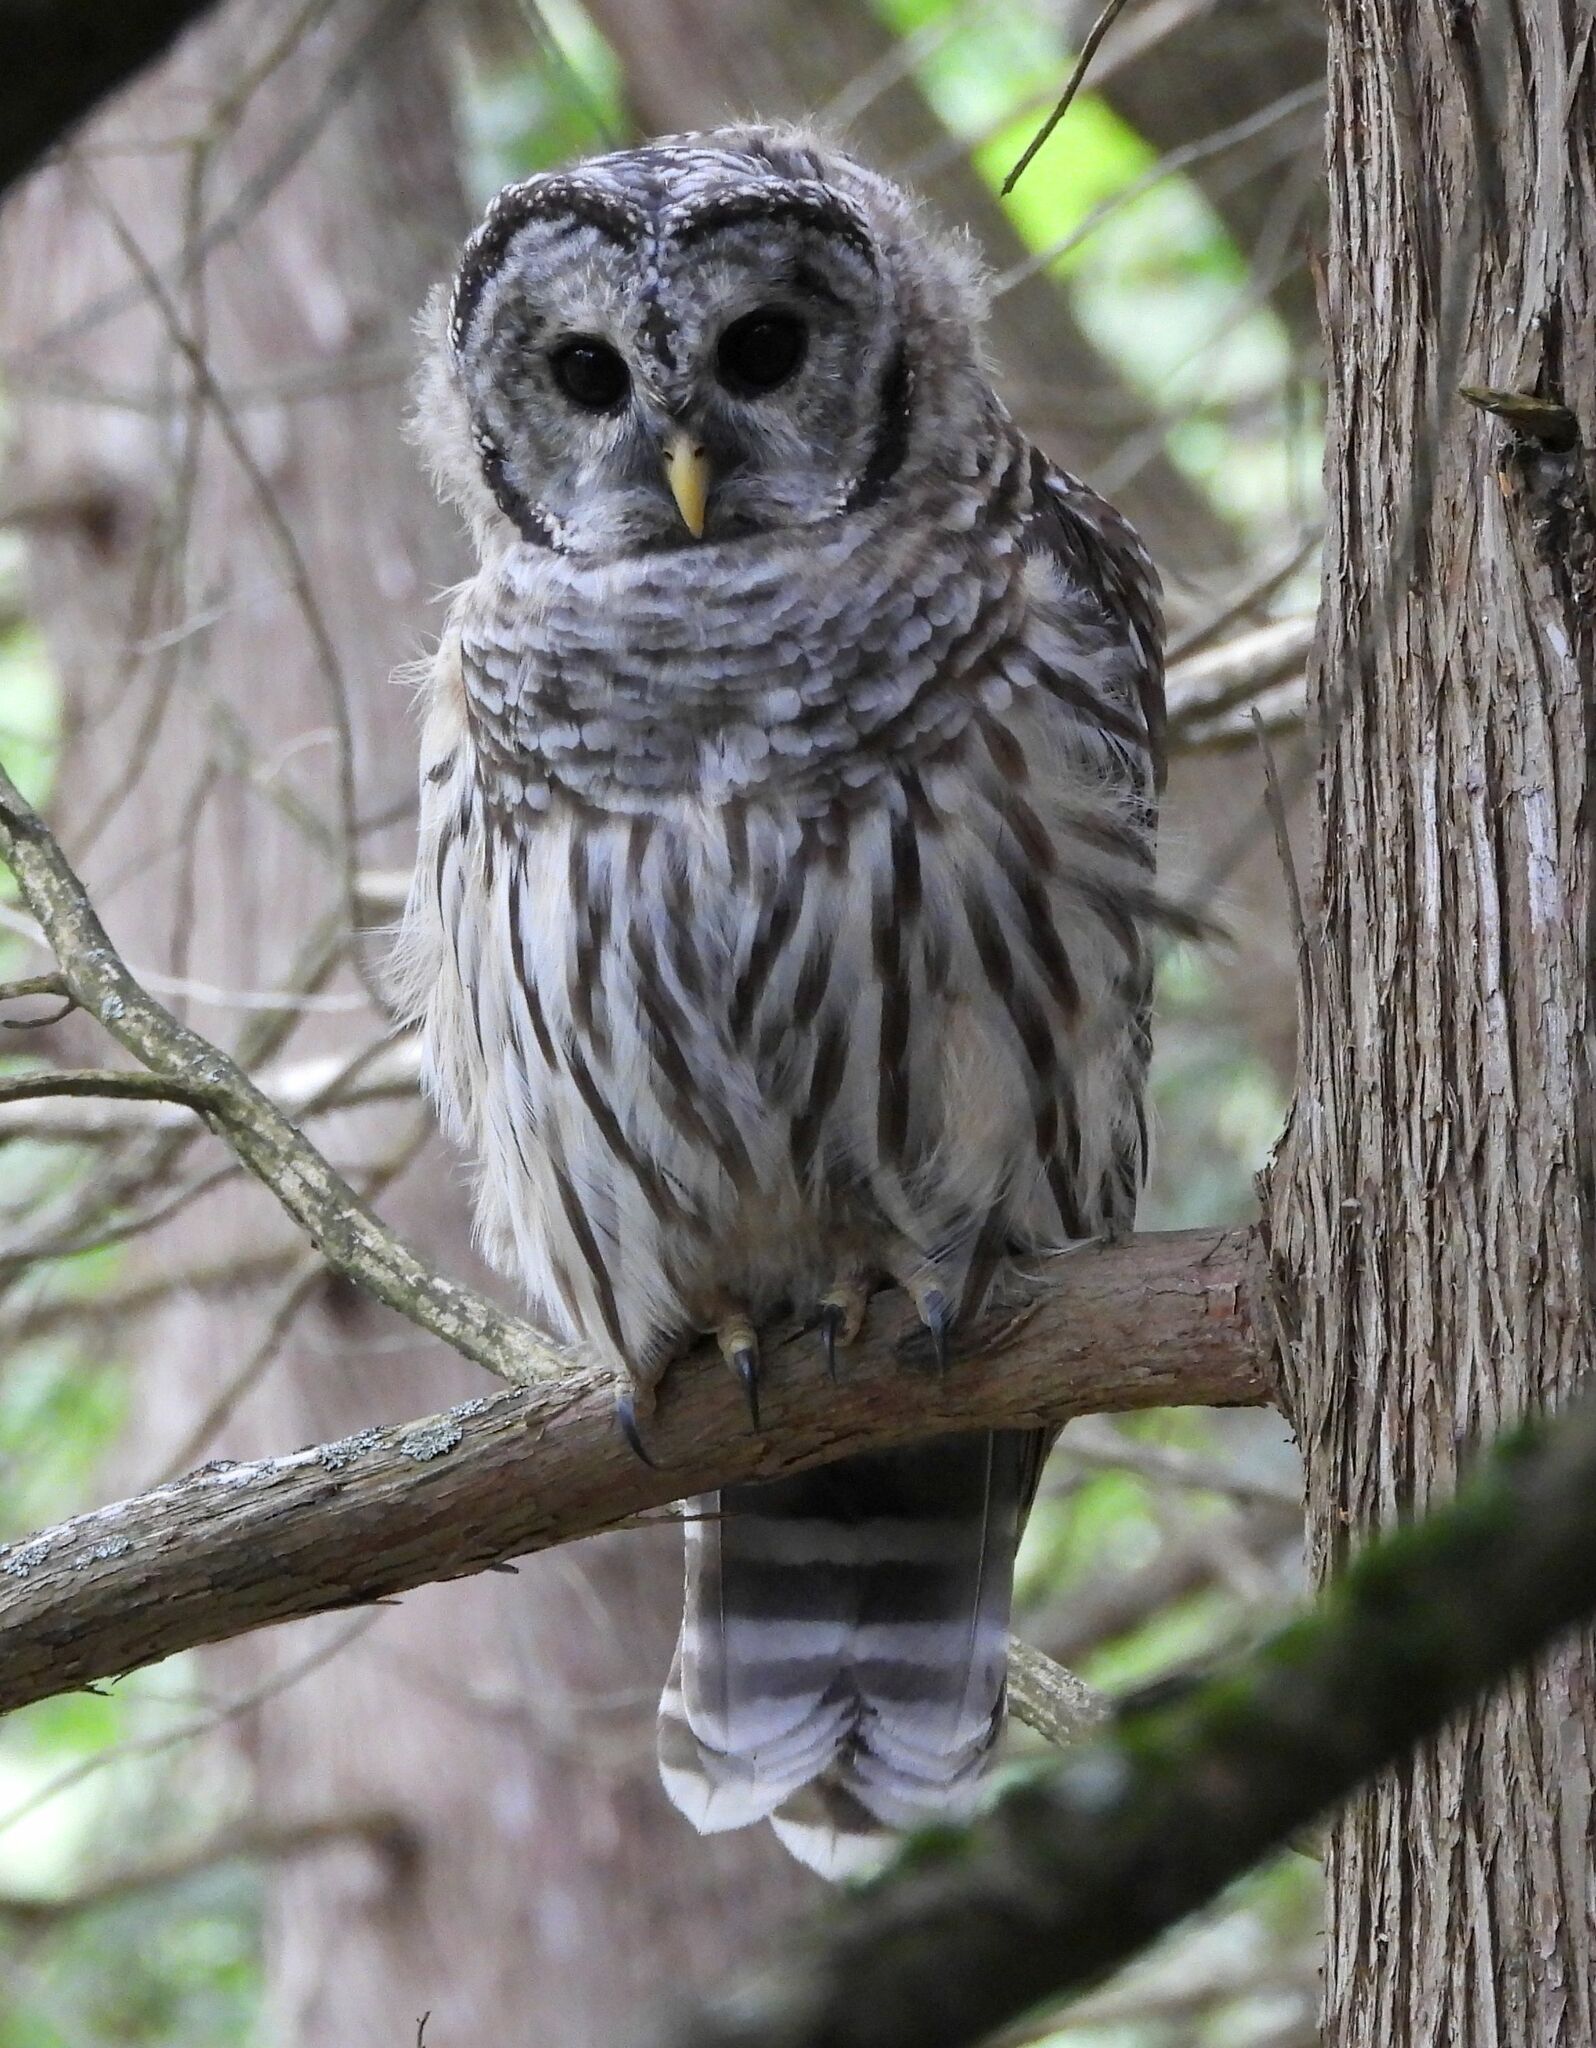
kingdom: Animalia
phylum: Chordata
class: Aves
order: Strigiformes
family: Strigidae
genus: Strix
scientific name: Strix varia
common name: Barred owl
